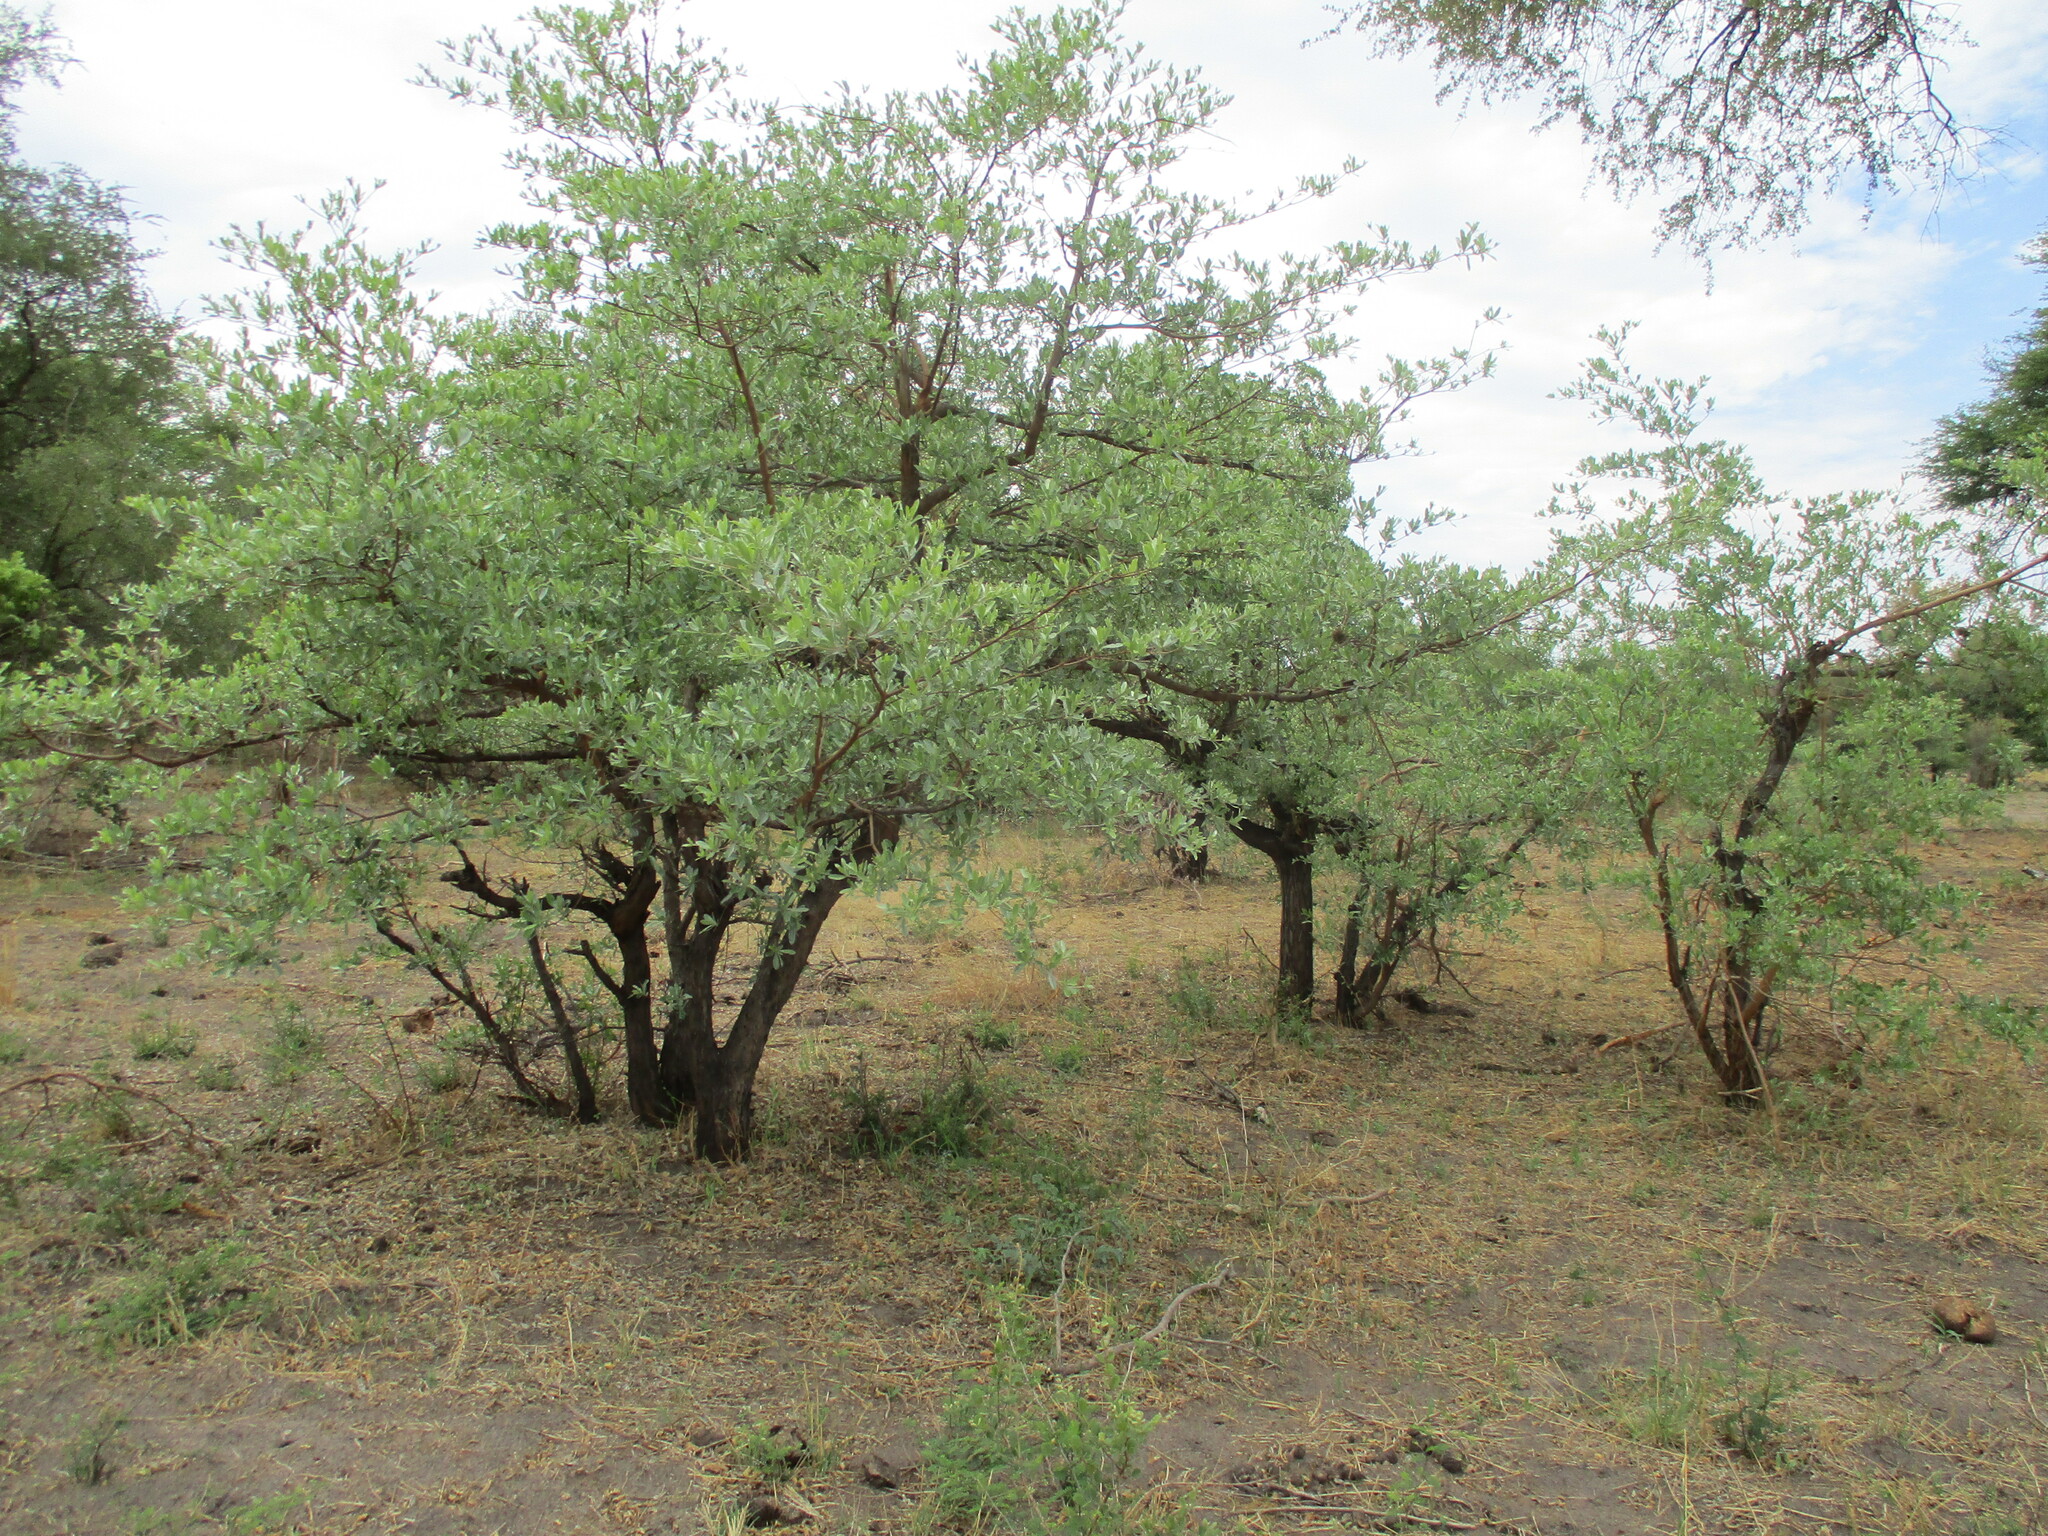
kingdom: Plantae
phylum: Tracheophyta
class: Magnoliopsida
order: Myrtales
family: Combretaceae
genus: Terminalia
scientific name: Terminalia sericea
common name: Clusterleaf
